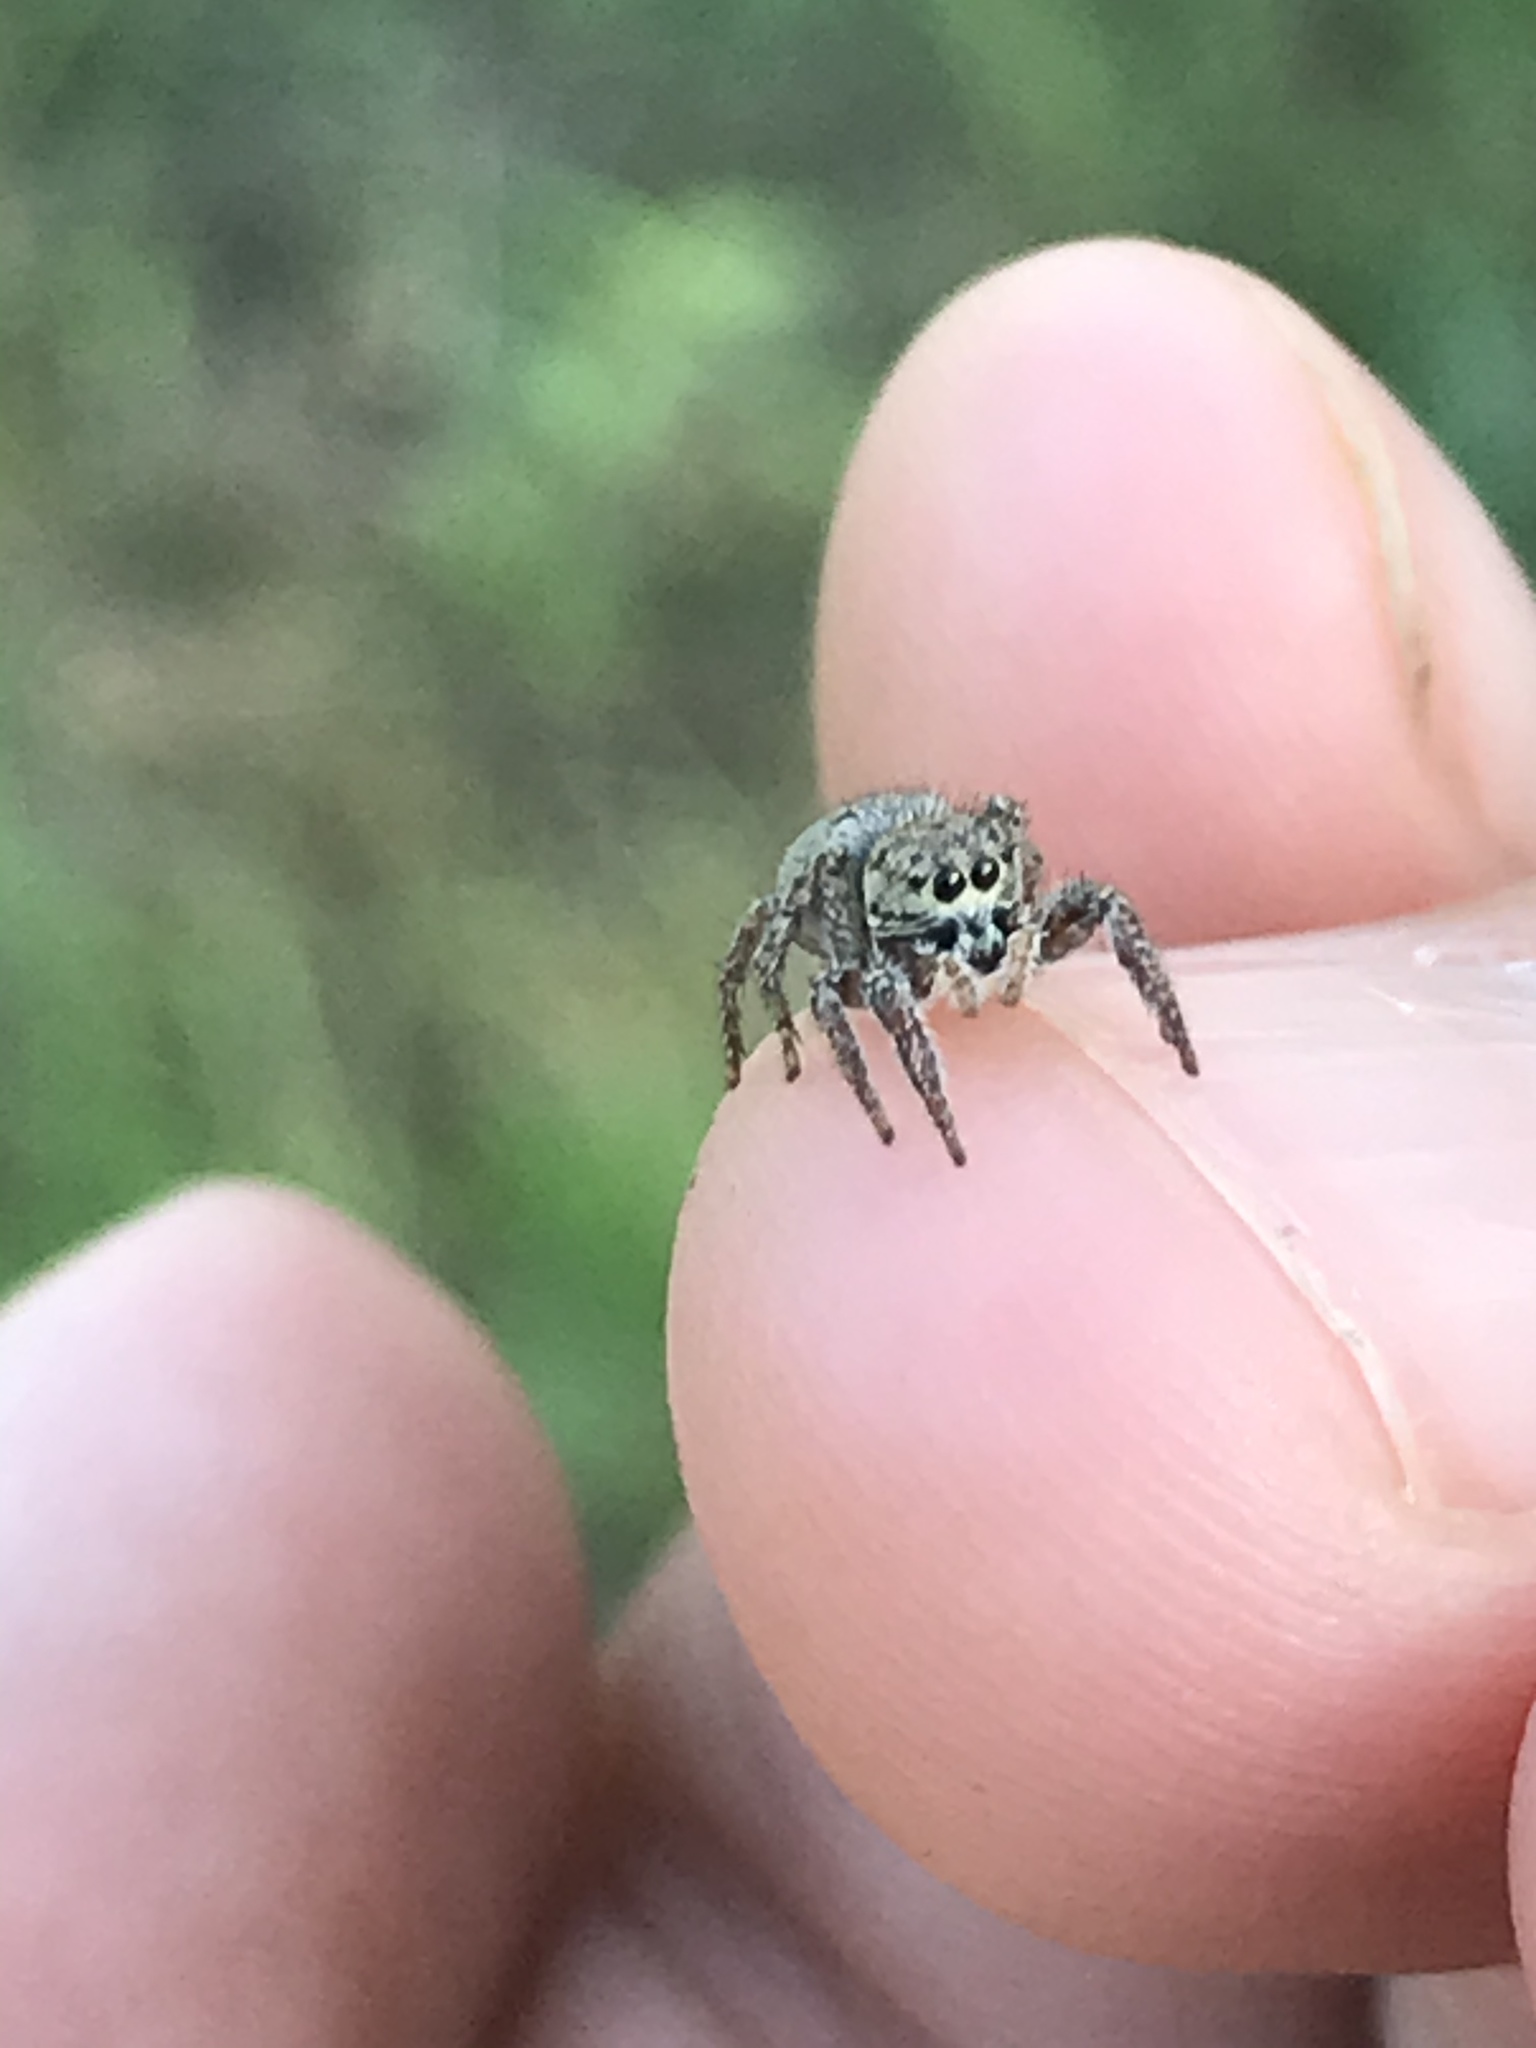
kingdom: Animalia
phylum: Arthropoda
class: Arachnida
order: Araneae
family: Salticidae
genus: Habronattus
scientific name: Habronattus coecatus
